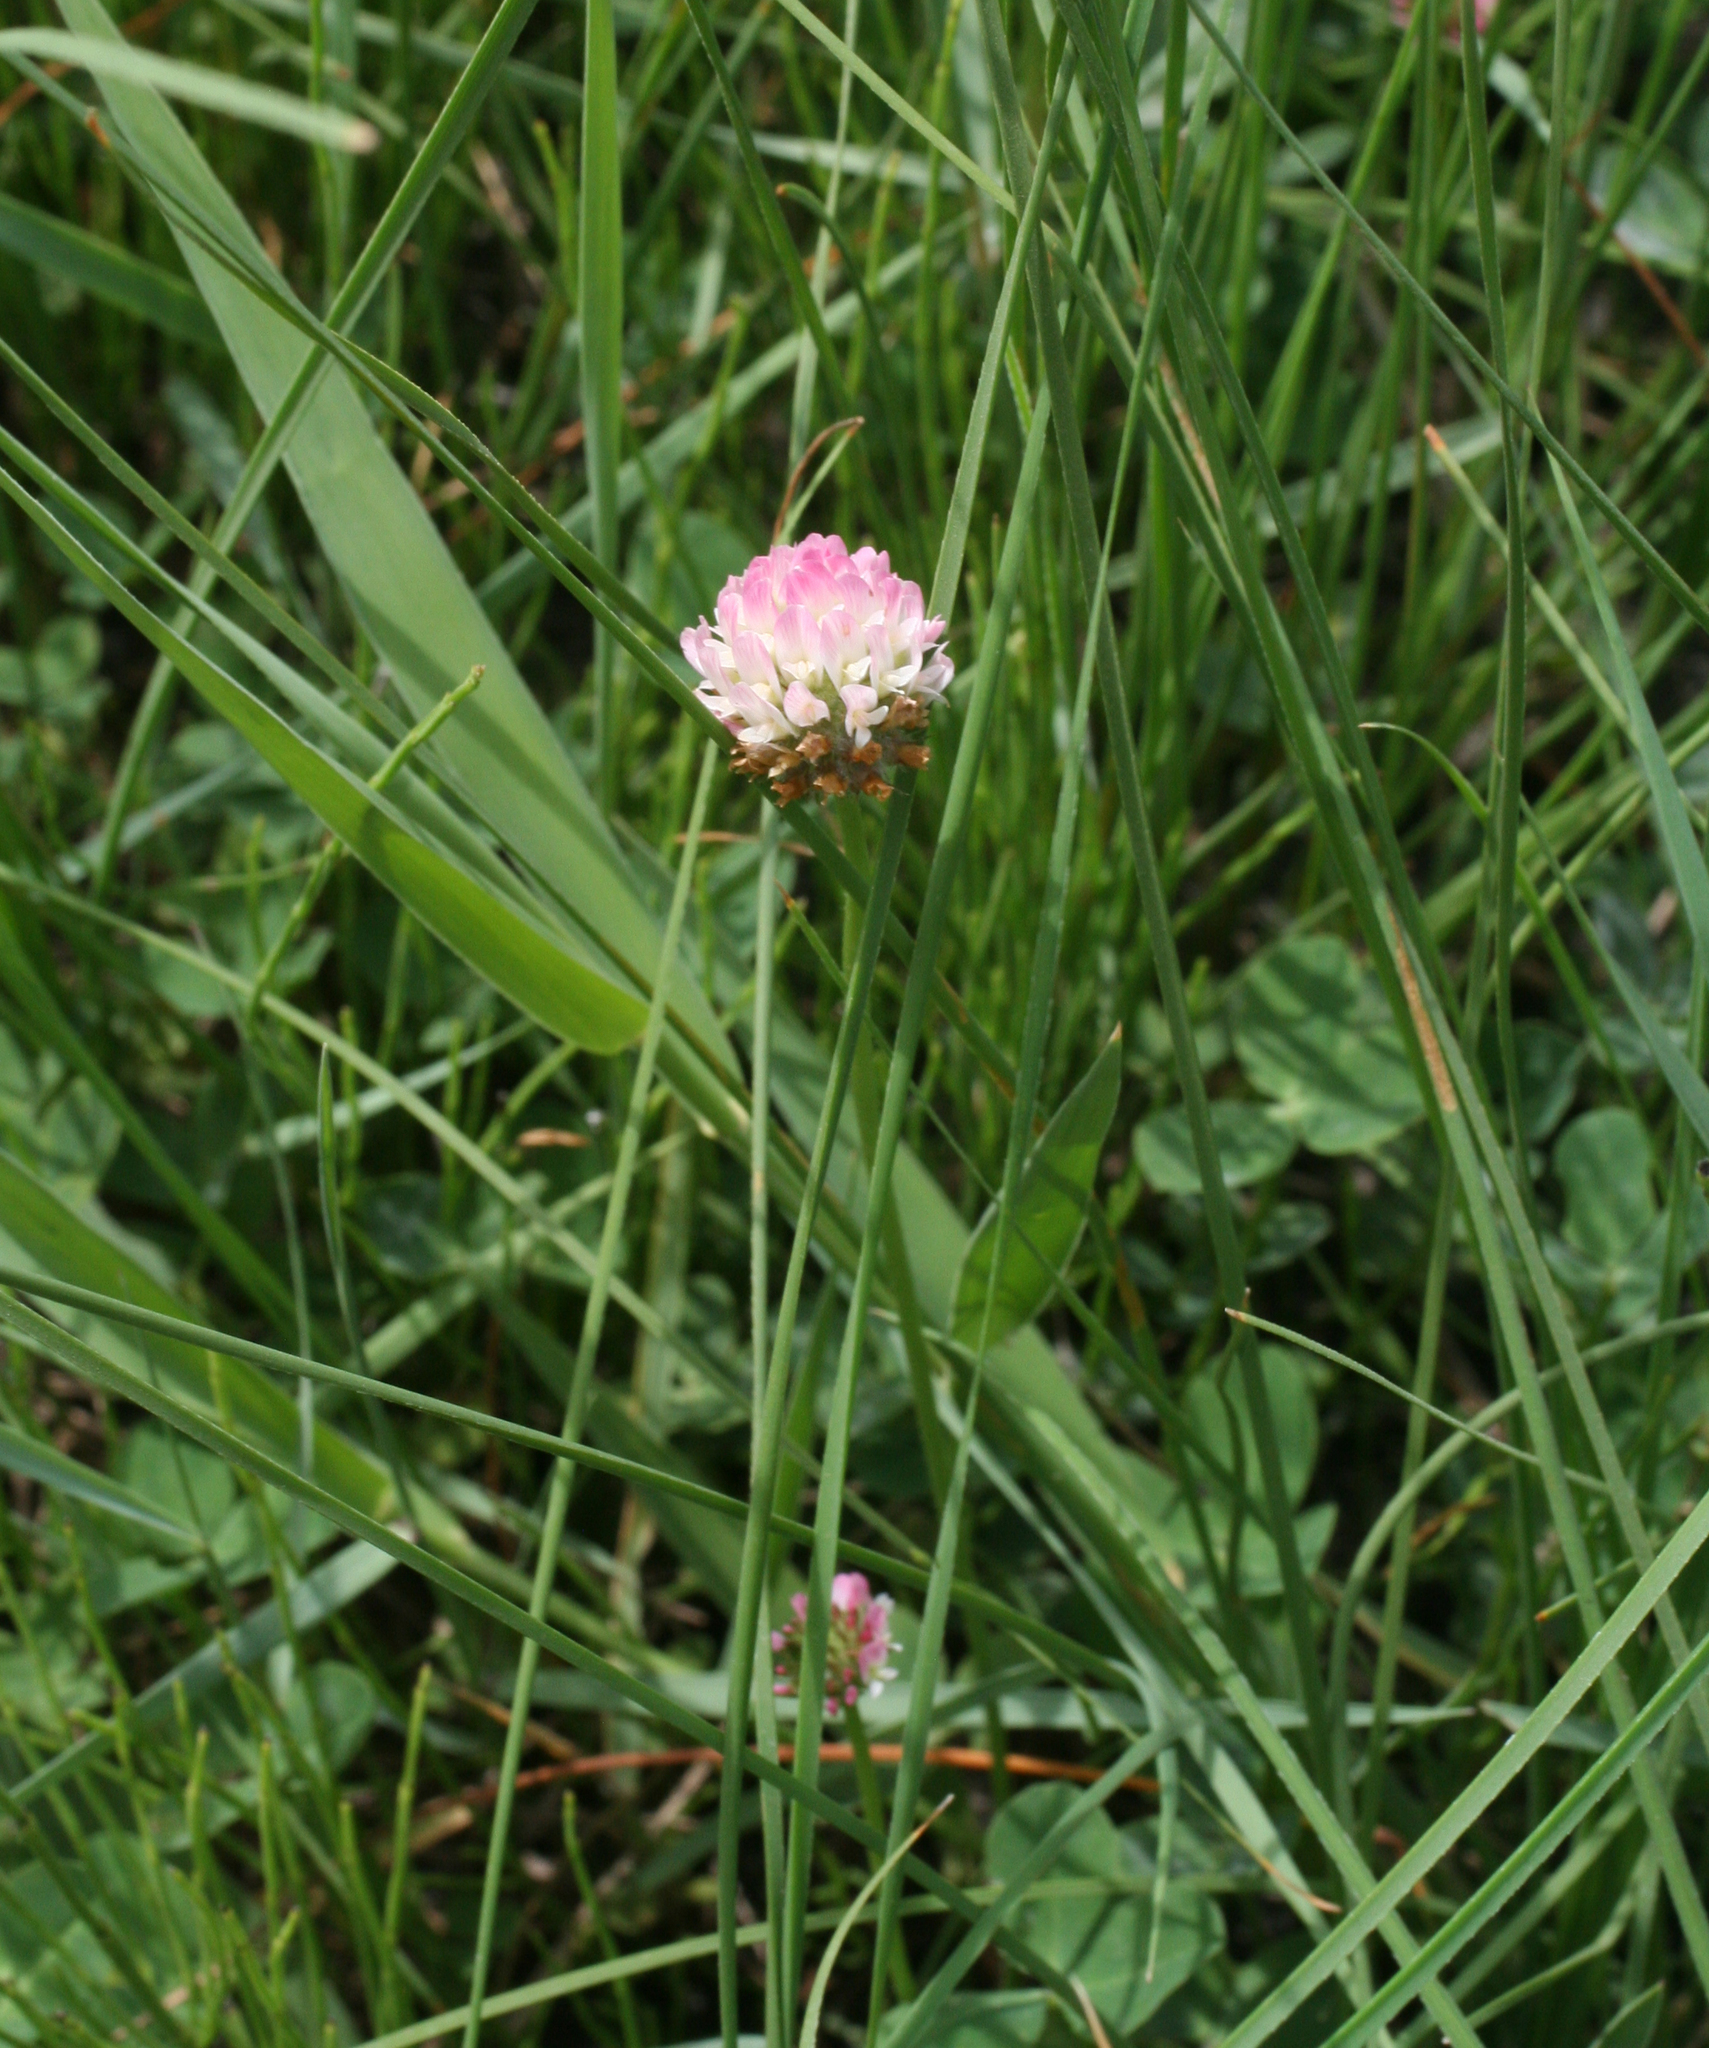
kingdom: Plantae
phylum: Tracheophyta
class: Magnoliopsida
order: Fabales
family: Fabaceae
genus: Trifolium
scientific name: Trifolium fragiferum
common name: Strawberry clover
